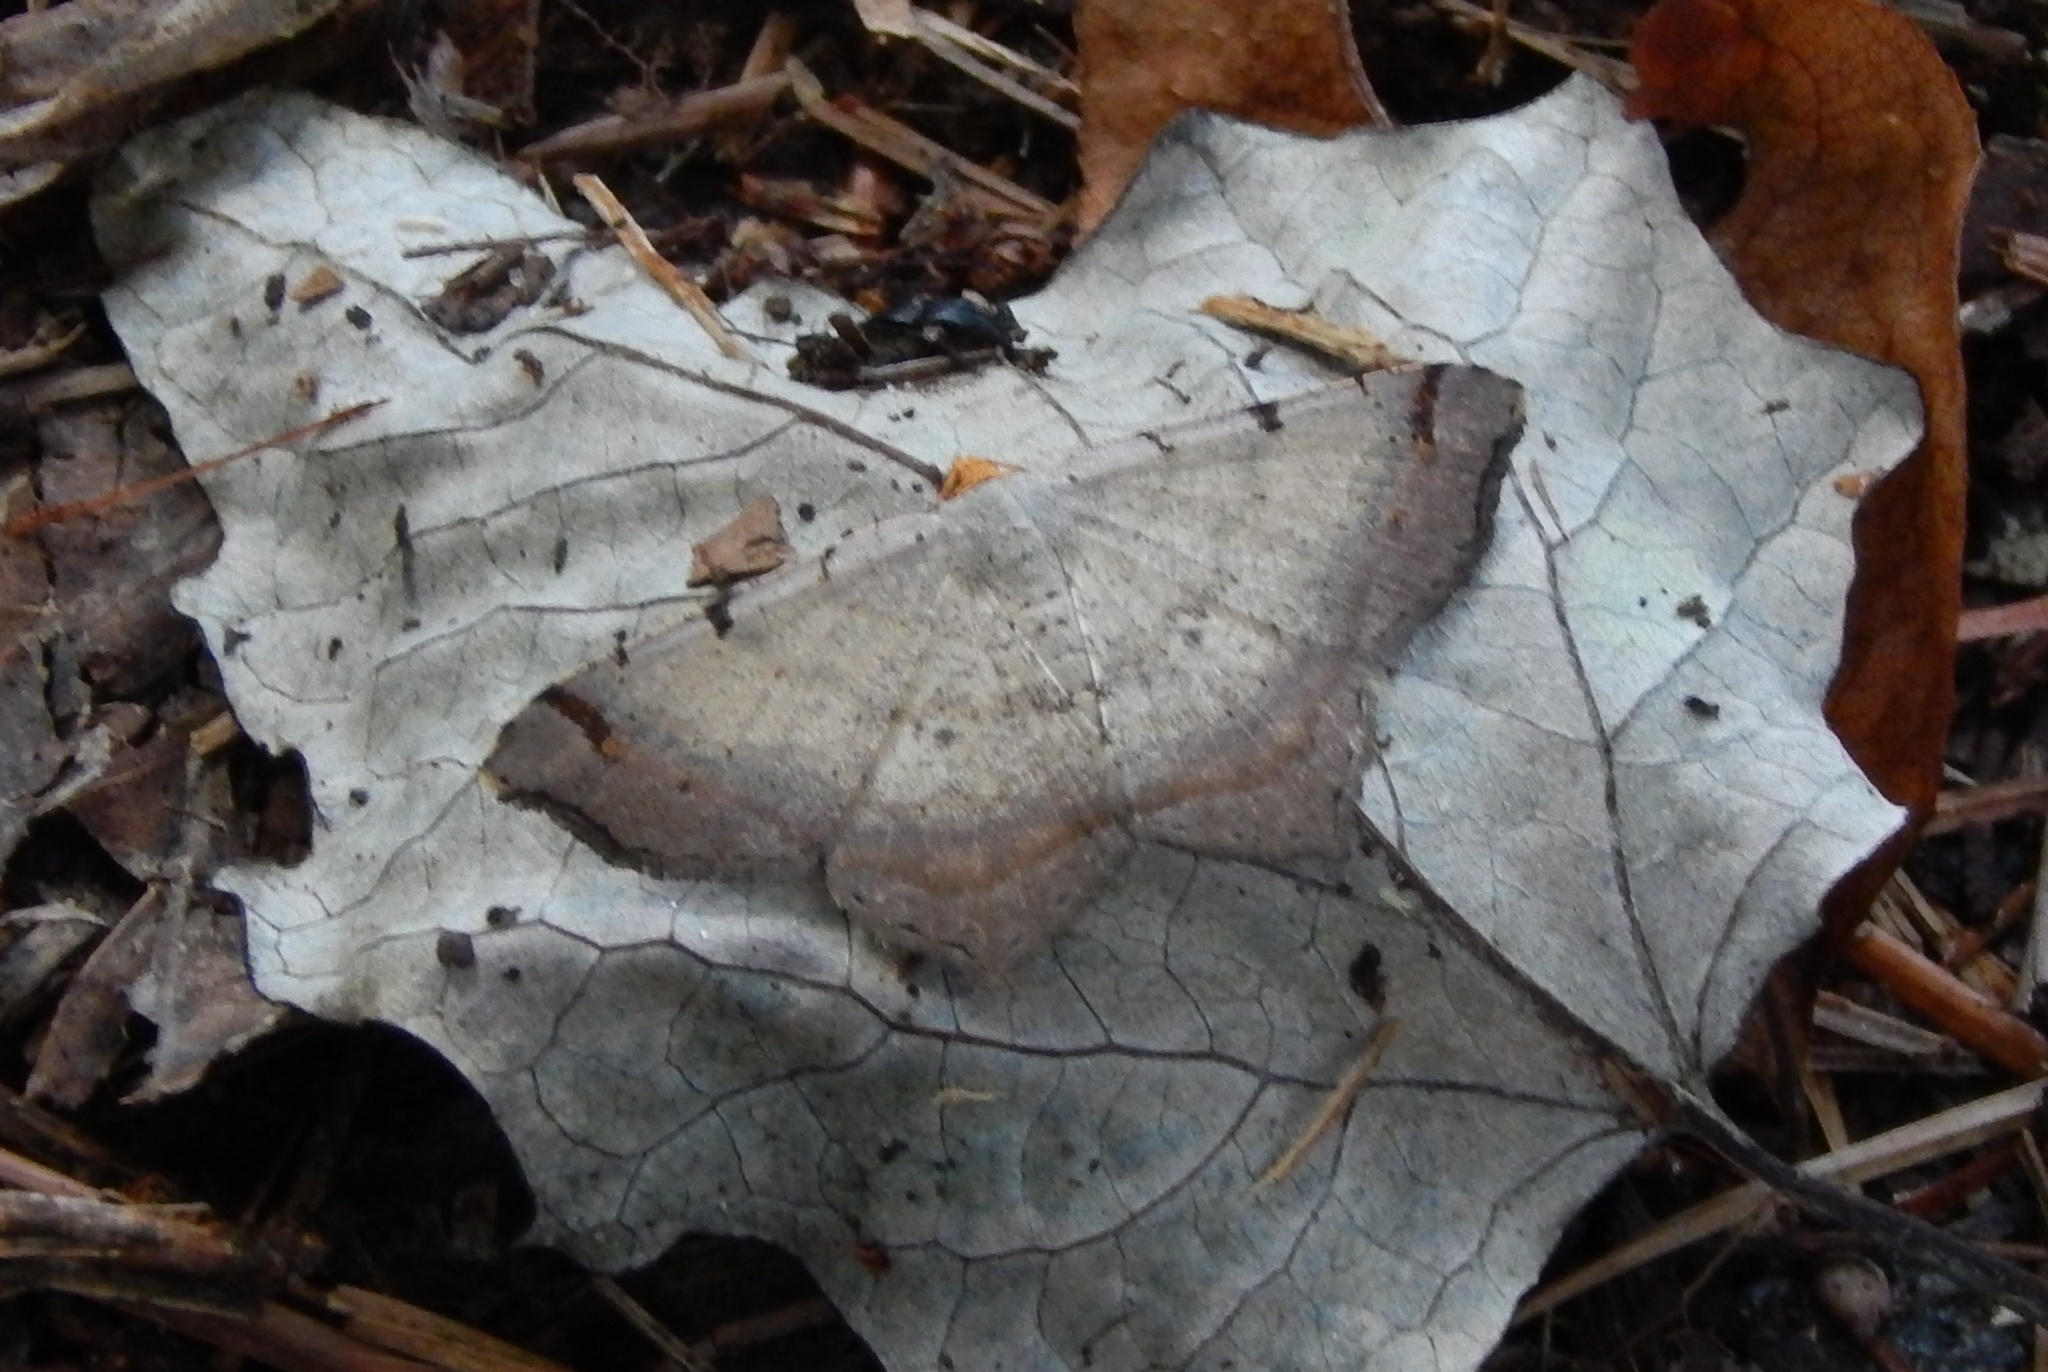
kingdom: Animalia
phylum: Arthropoda
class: Insecta
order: Lepidoptera
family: Geometridae
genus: Macaria
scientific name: Macaria bicolorata
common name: Dingy angle
